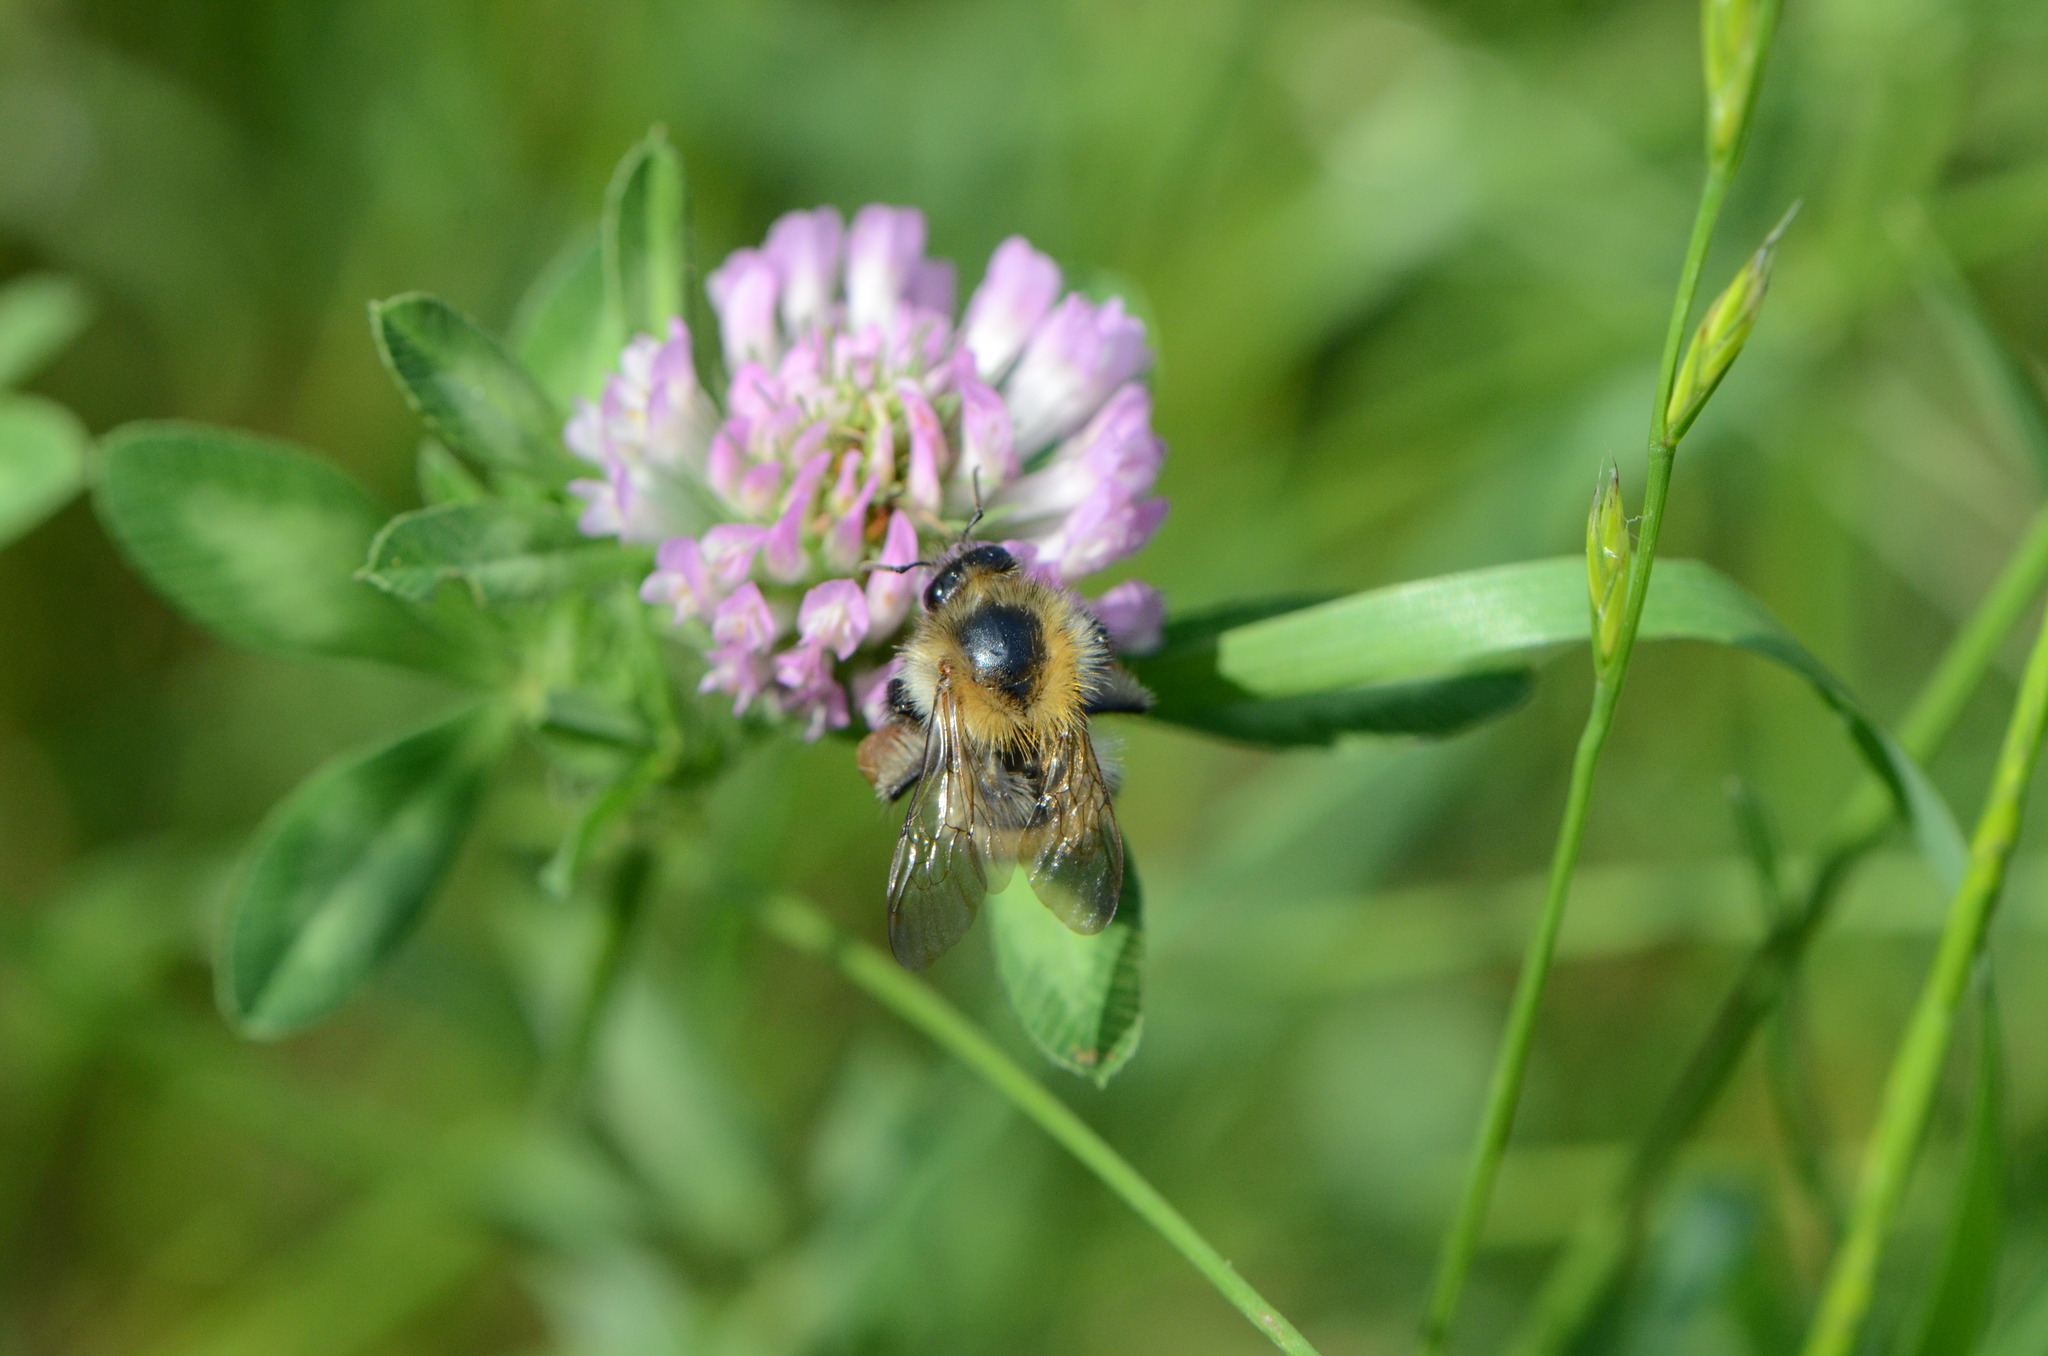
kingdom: Animalia
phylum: Arthropoda
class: Insecta
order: Hymenoptera
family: Apidae
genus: Bombus
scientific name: Bombus pascuorum
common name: Common carder bee
